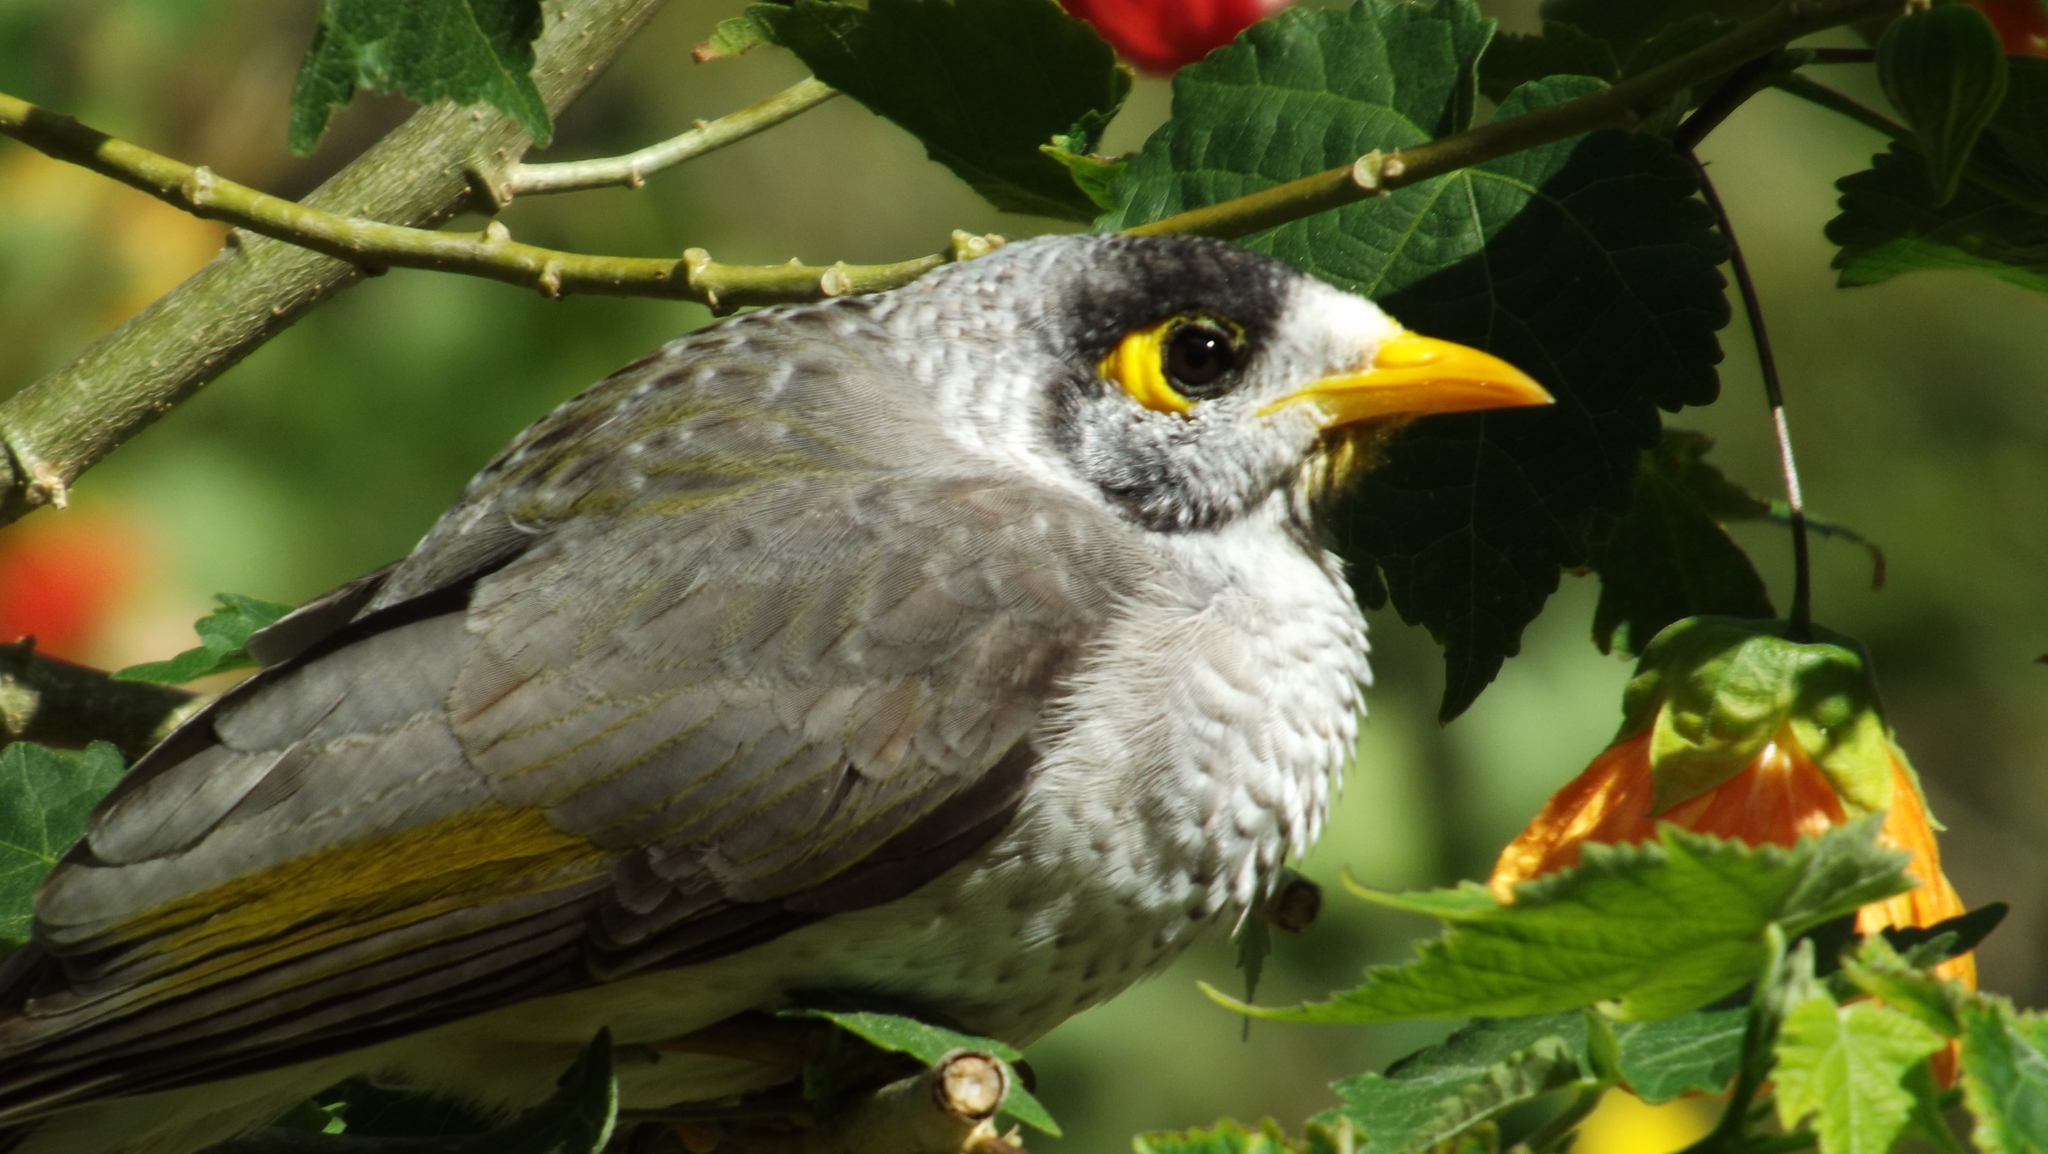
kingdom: Animalia
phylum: Chordata
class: Aves
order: Passeriformes
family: Meliphagidae
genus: Manorina
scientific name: Manorina melanocephala
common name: Noisy miner
